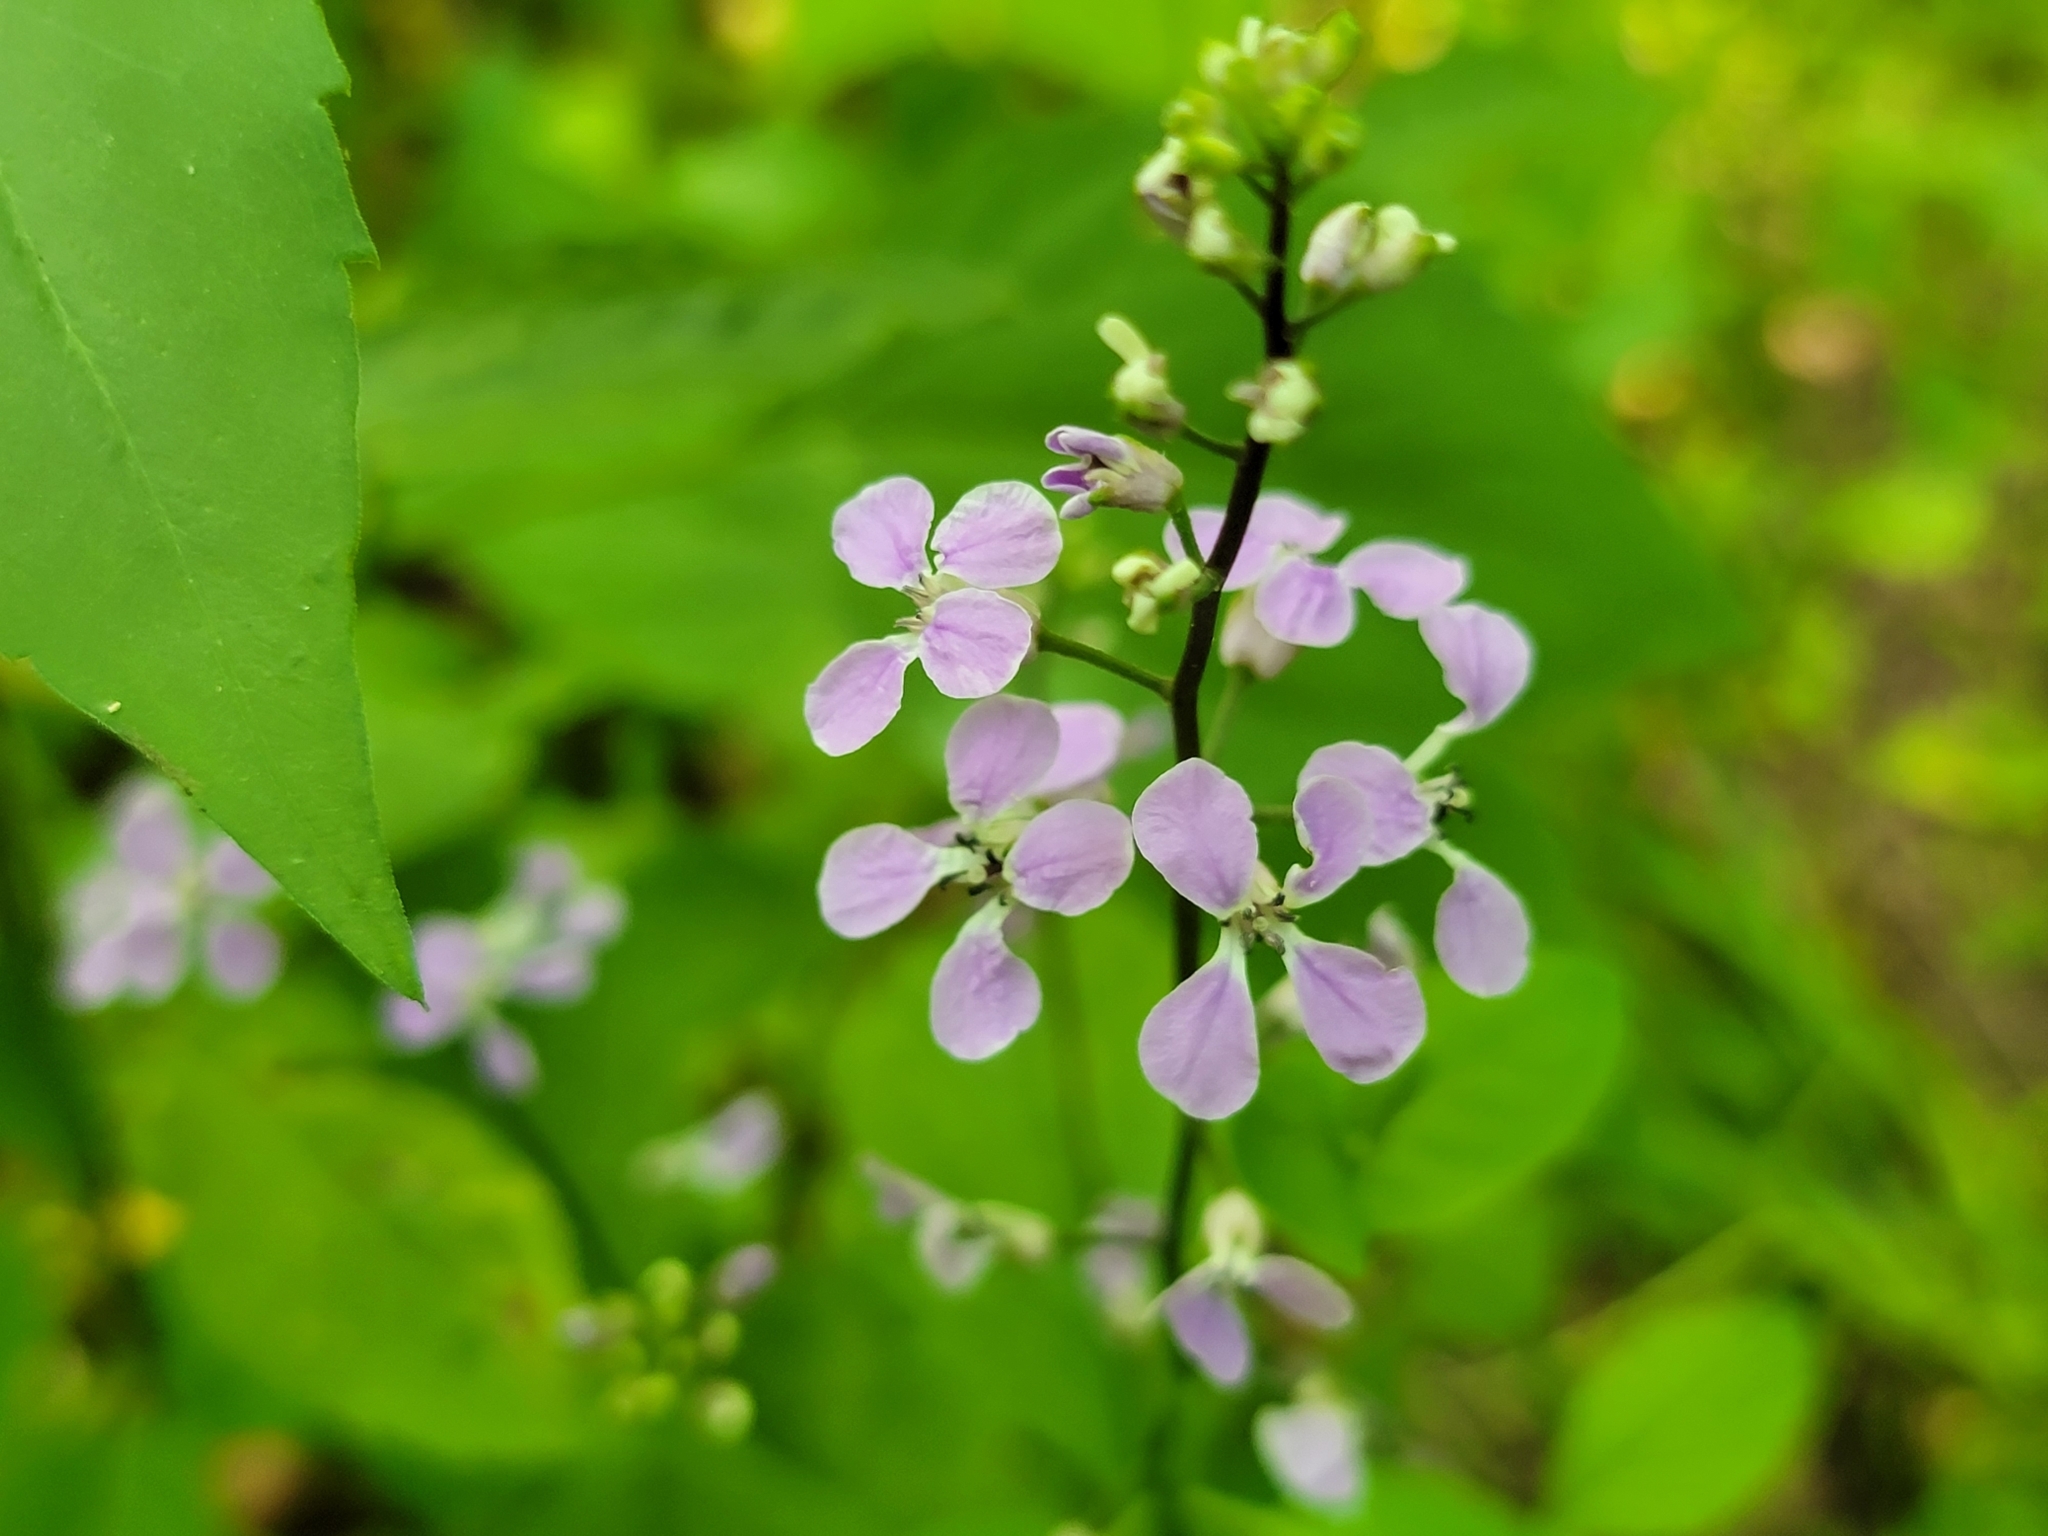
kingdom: Plantae
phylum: Tracheophyta
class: Magnoliopsida
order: Brassicales
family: Brassicaceae
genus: Iodanthus
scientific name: Iodanthus pinnatifidus
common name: Violet rocket
